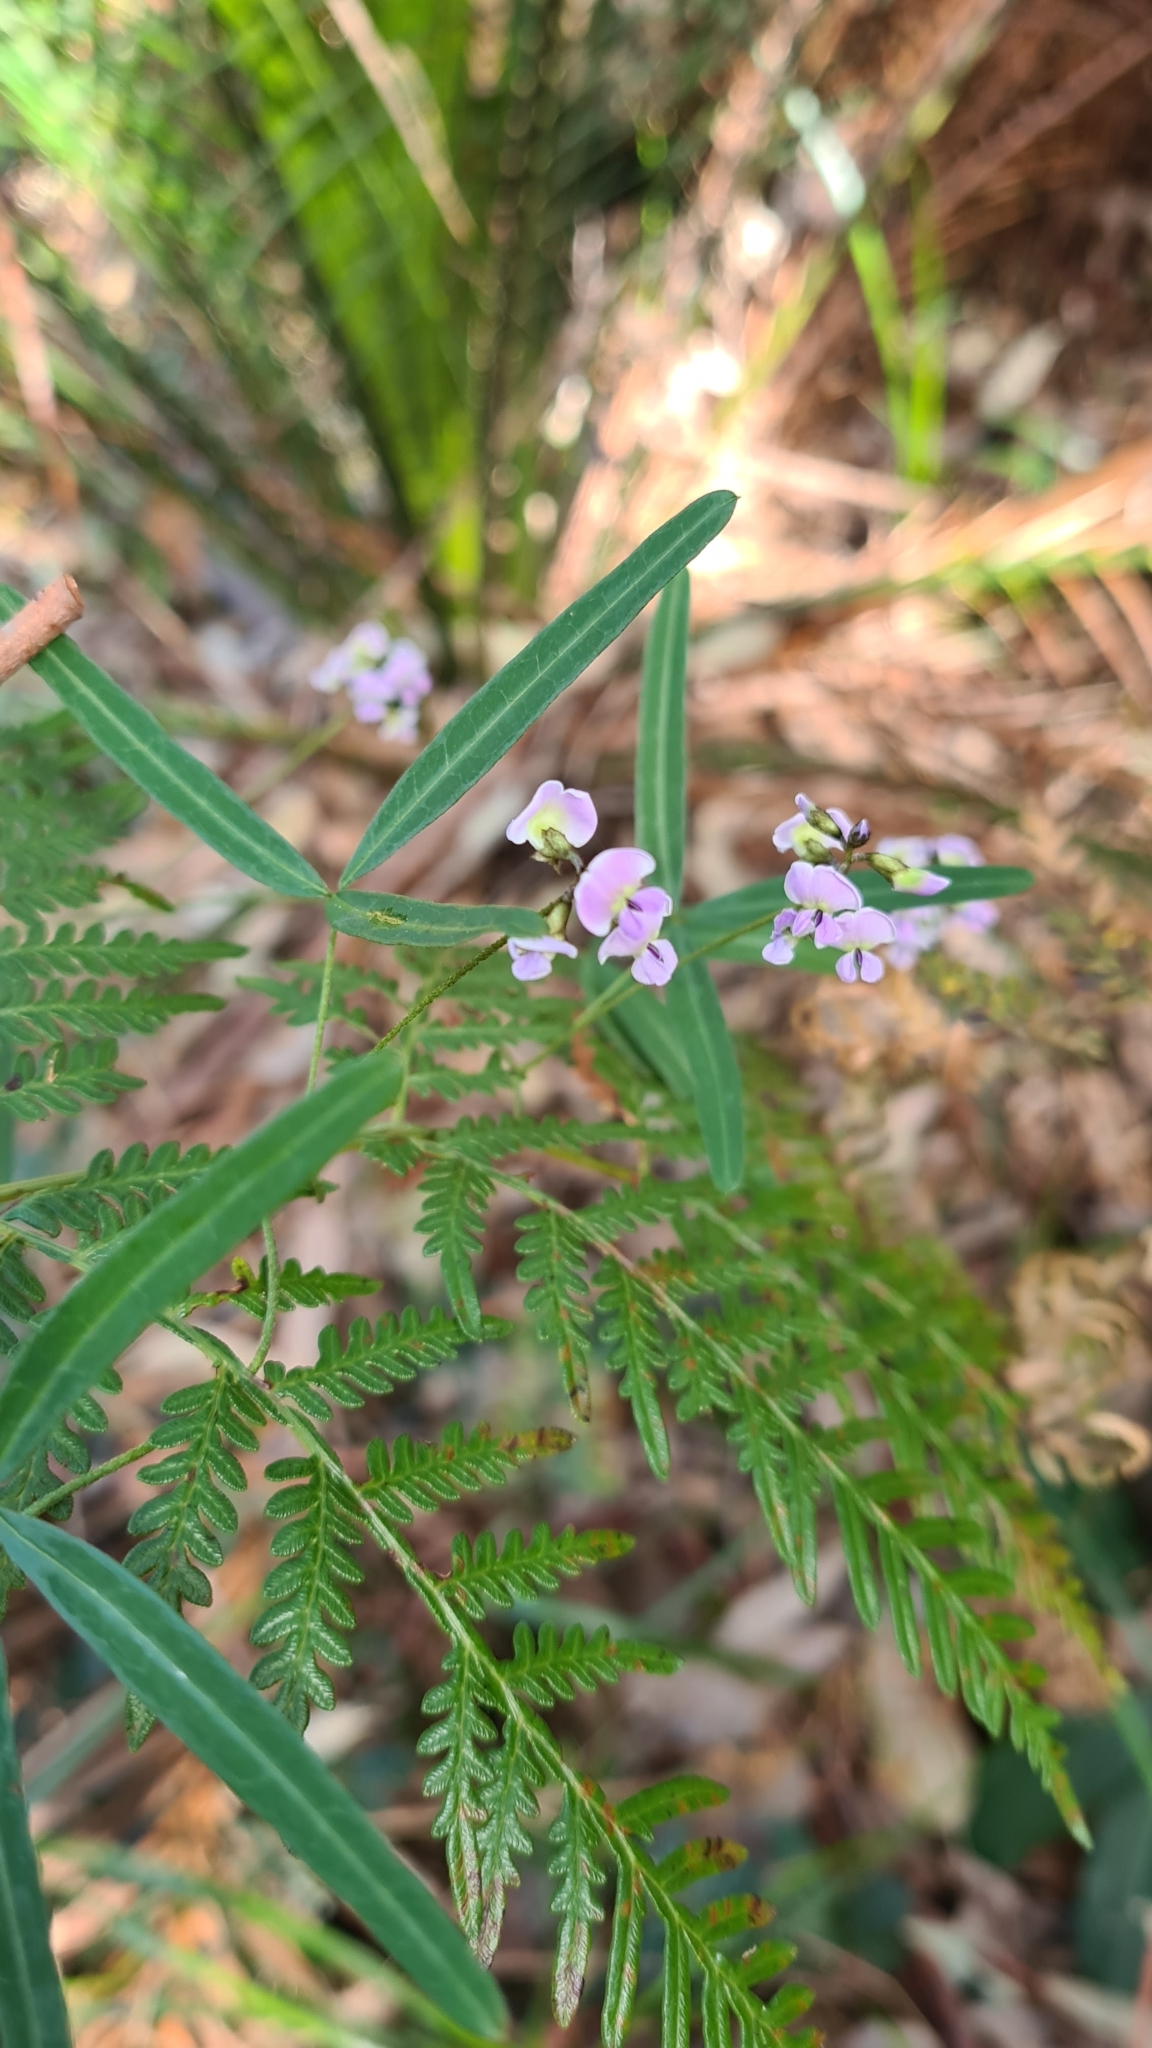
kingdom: Plantae
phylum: Tracheophyta
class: Magnoliopsida
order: Fabales
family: Fabaceae
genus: Glycine
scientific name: Glycine clandestina
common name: Twining glycine
